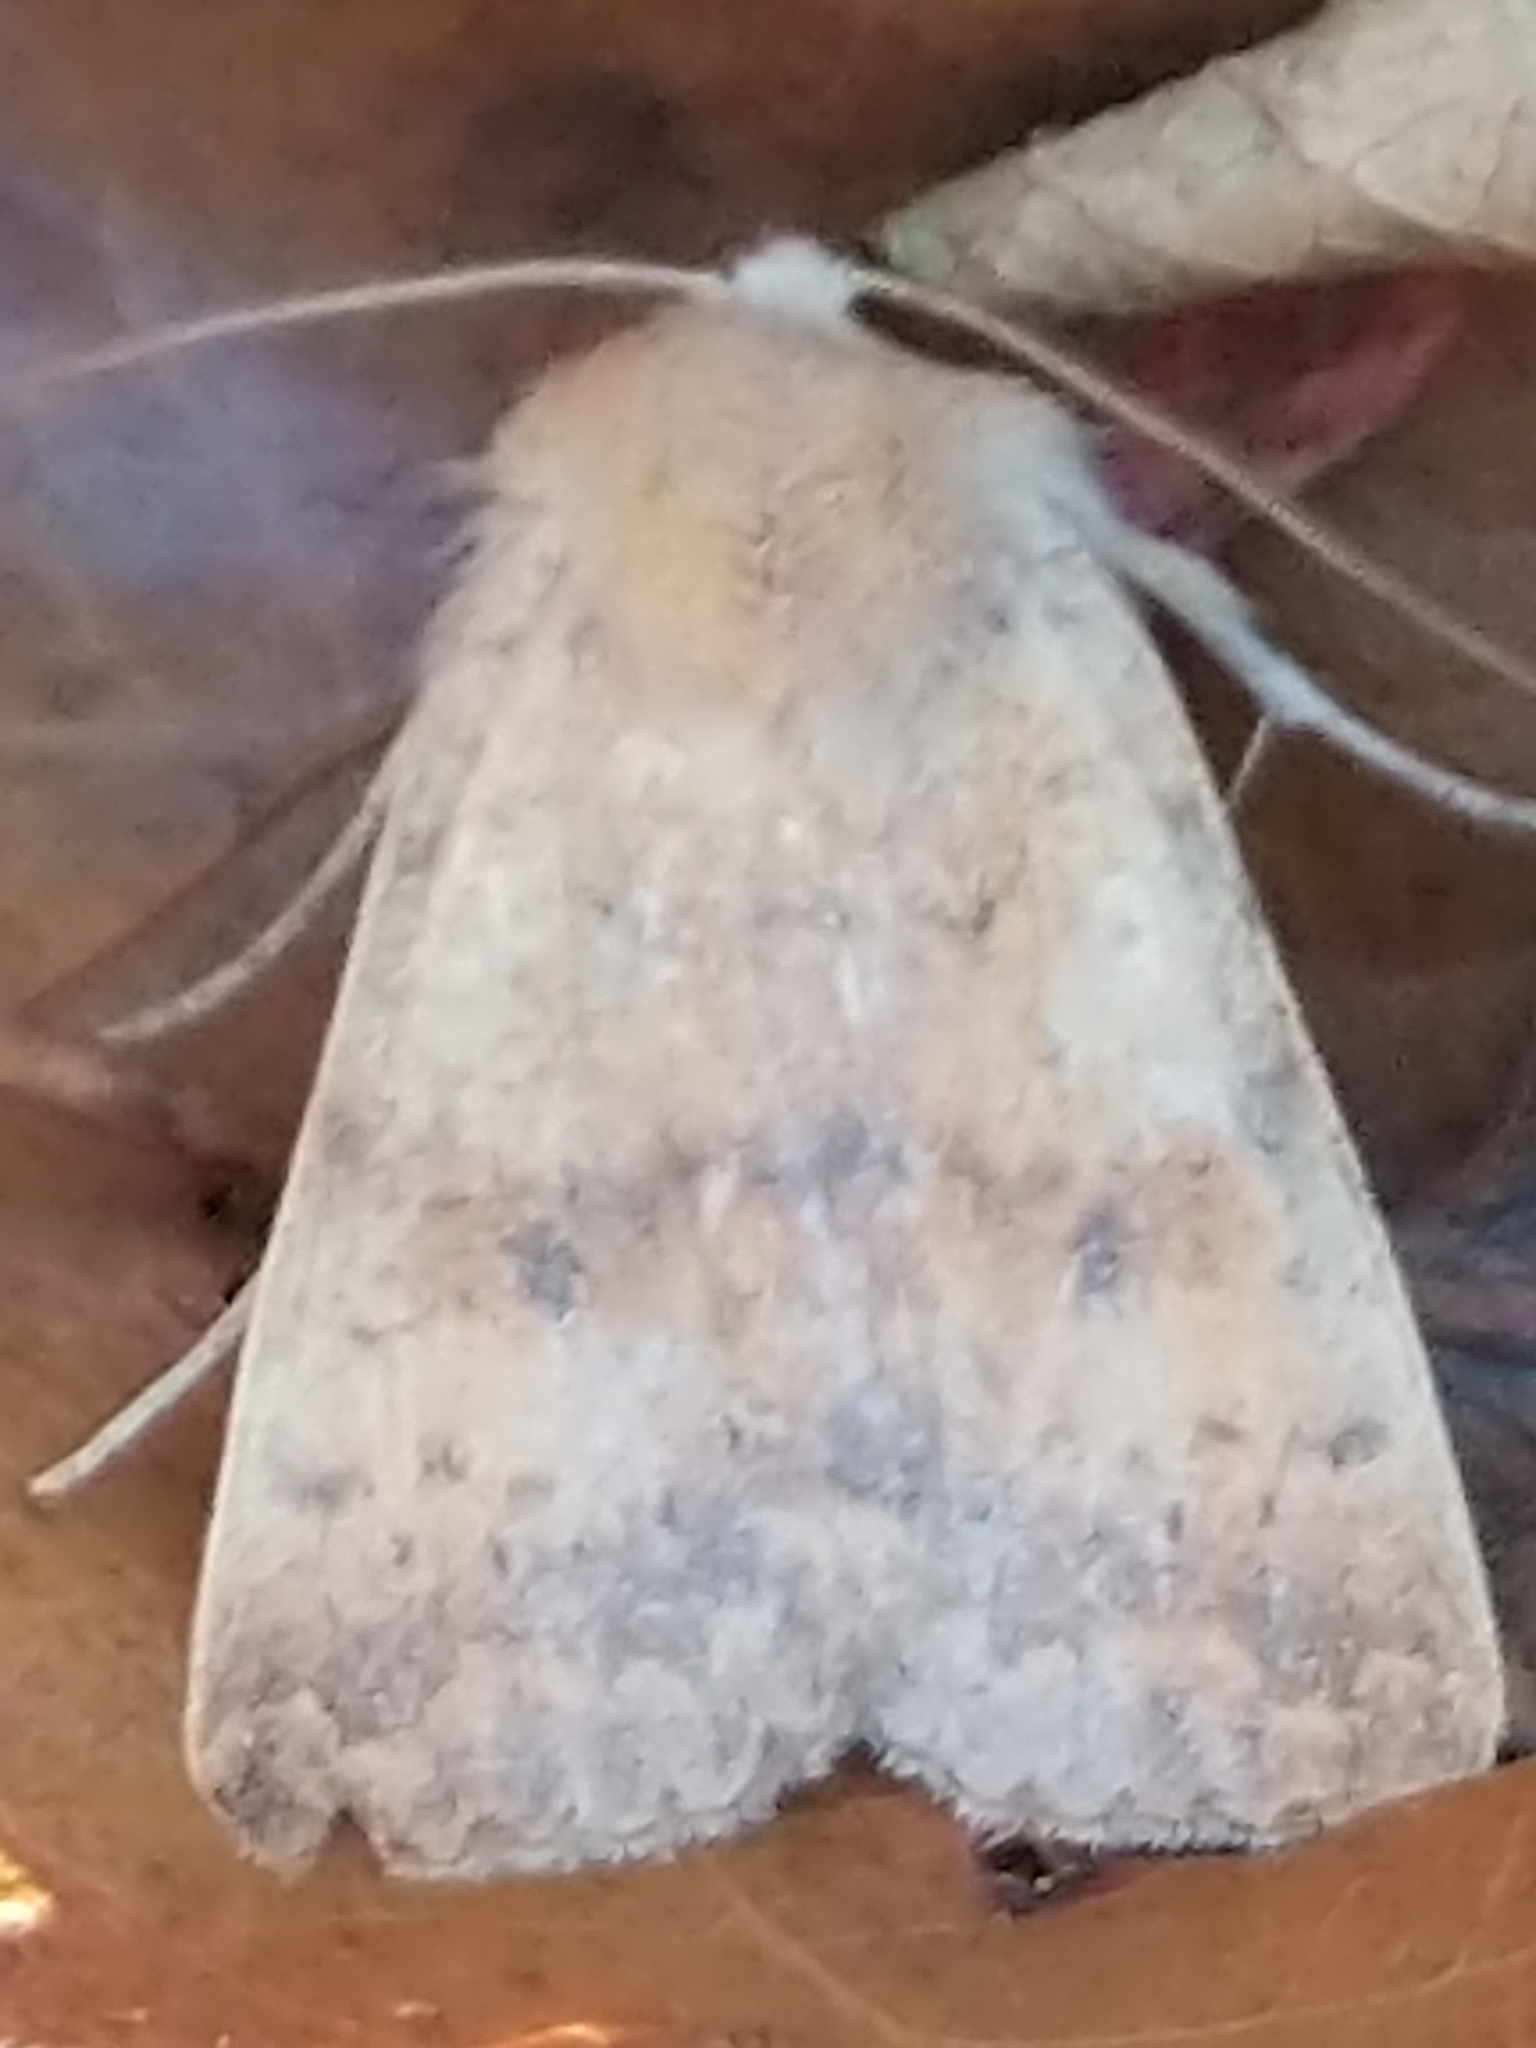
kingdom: Animalia
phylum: Arthropoda
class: Insecta
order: Lepidoptera
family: Noctuidae
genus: Agrochola
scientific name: Agrochola bicolorago
